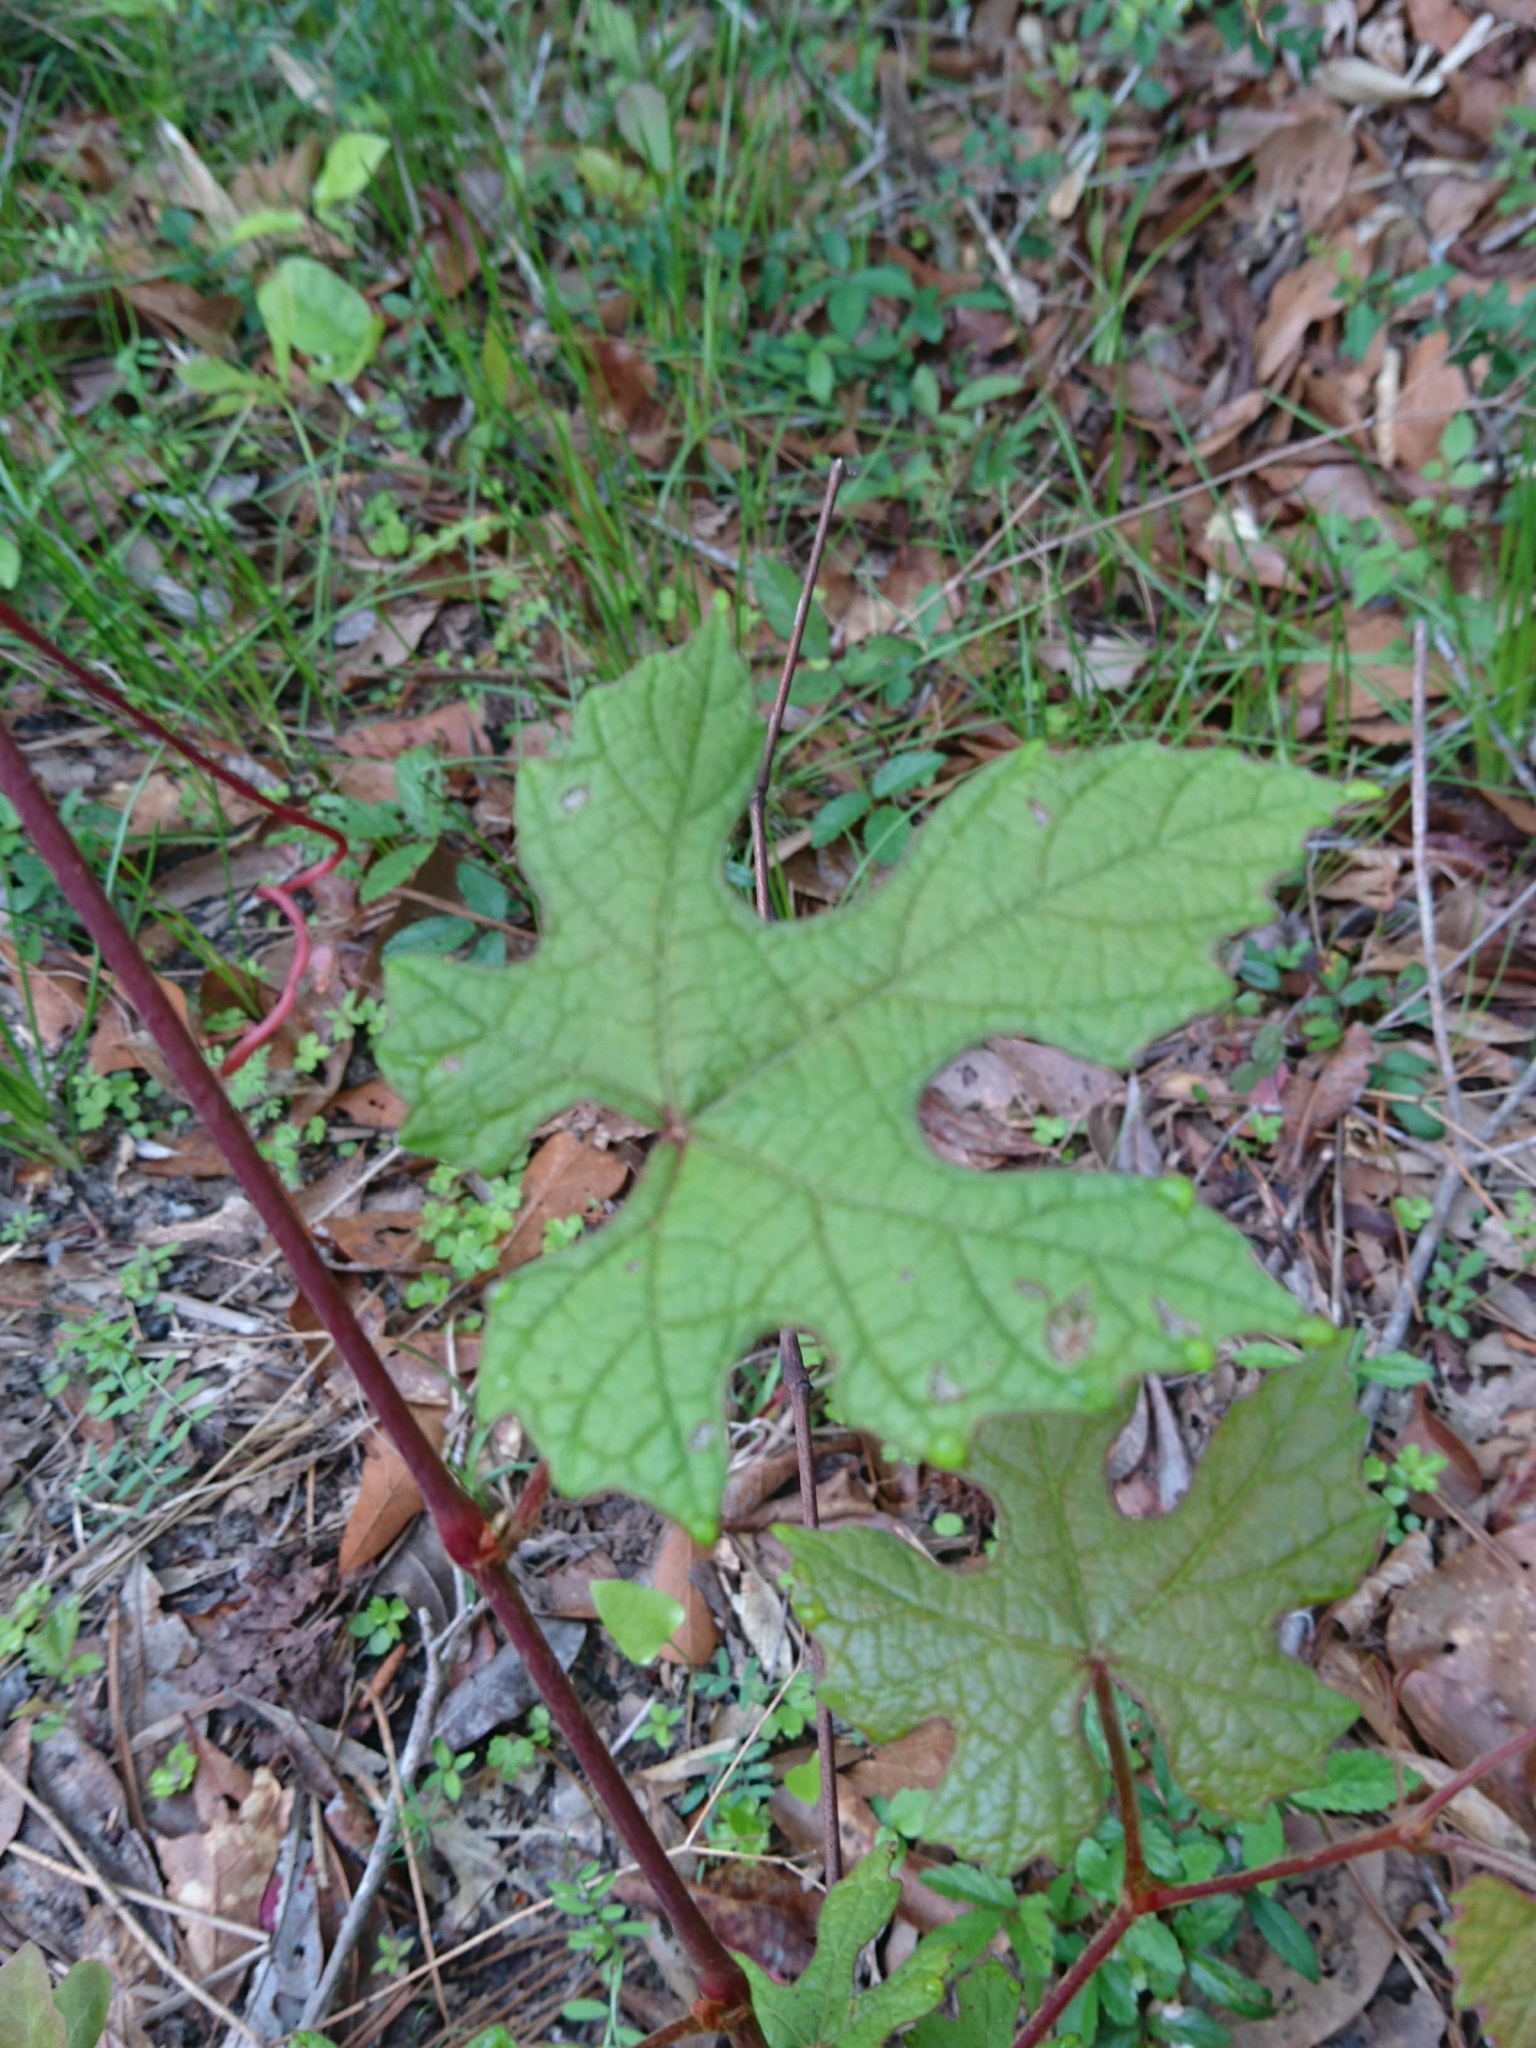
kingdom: Plantae
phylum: Tracheophyta
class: Magnoliopsida
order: Vitales
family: Vitaceae
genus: Vitis
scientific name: Vitis aestivalis
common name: Pigeon grape
